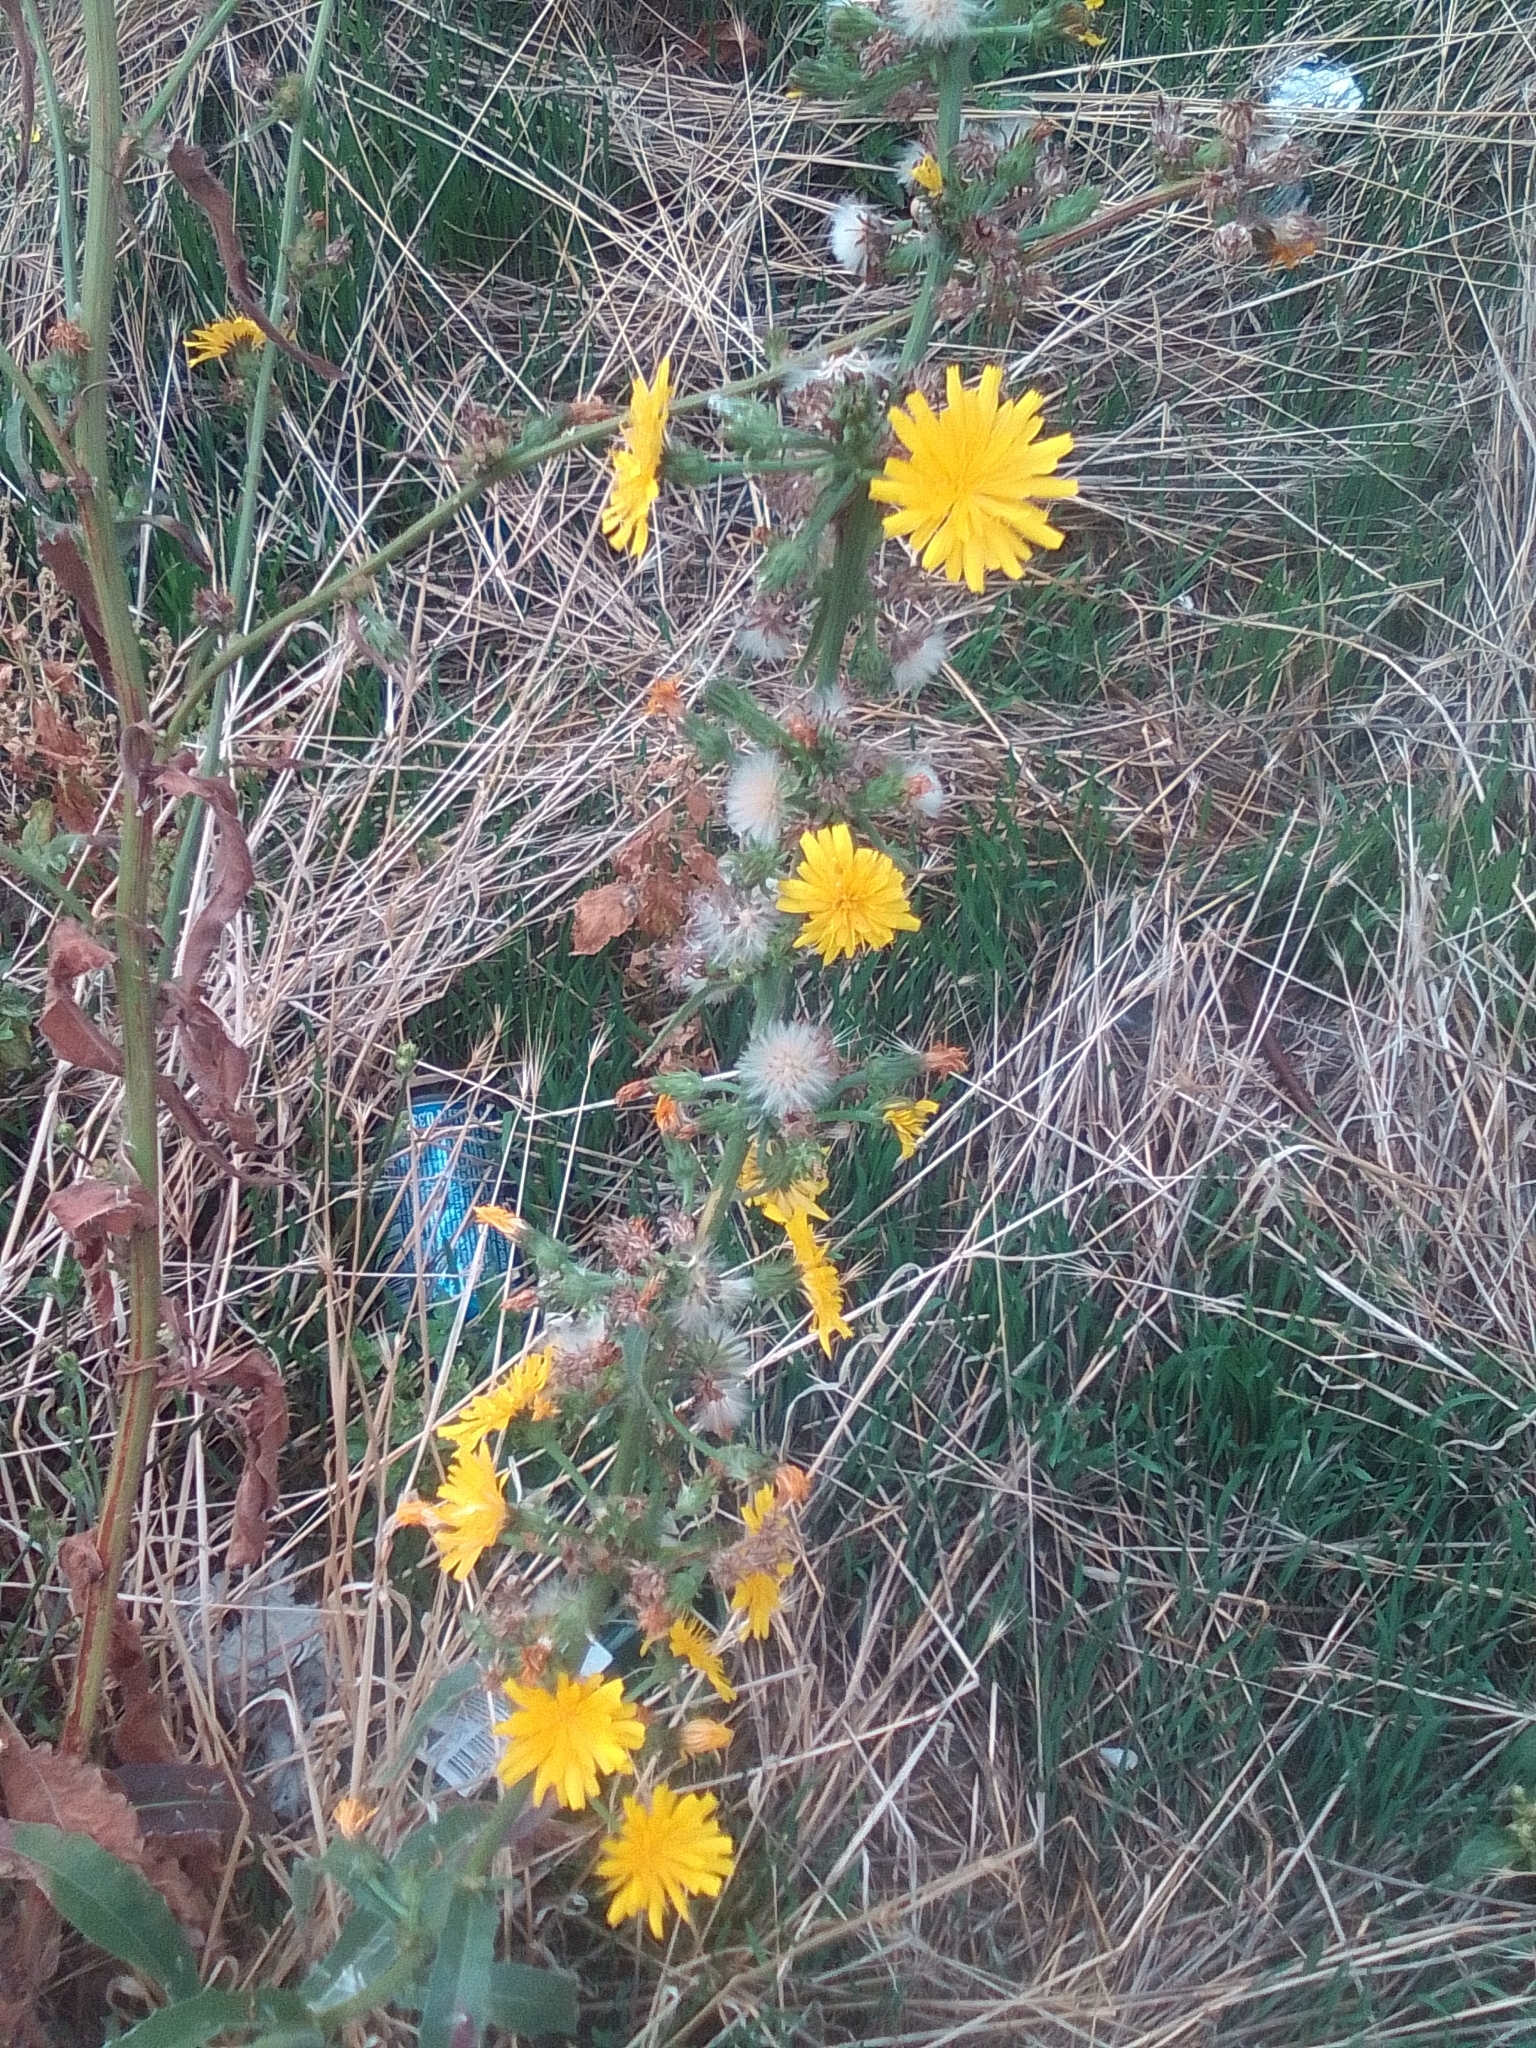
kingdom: Plantae
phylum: Tracheophyta
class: Magnoliopsida
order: Asterales
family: Asteraceae
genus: Picris
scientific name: Picris hieracioides
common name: Hawkweed oxtongue
